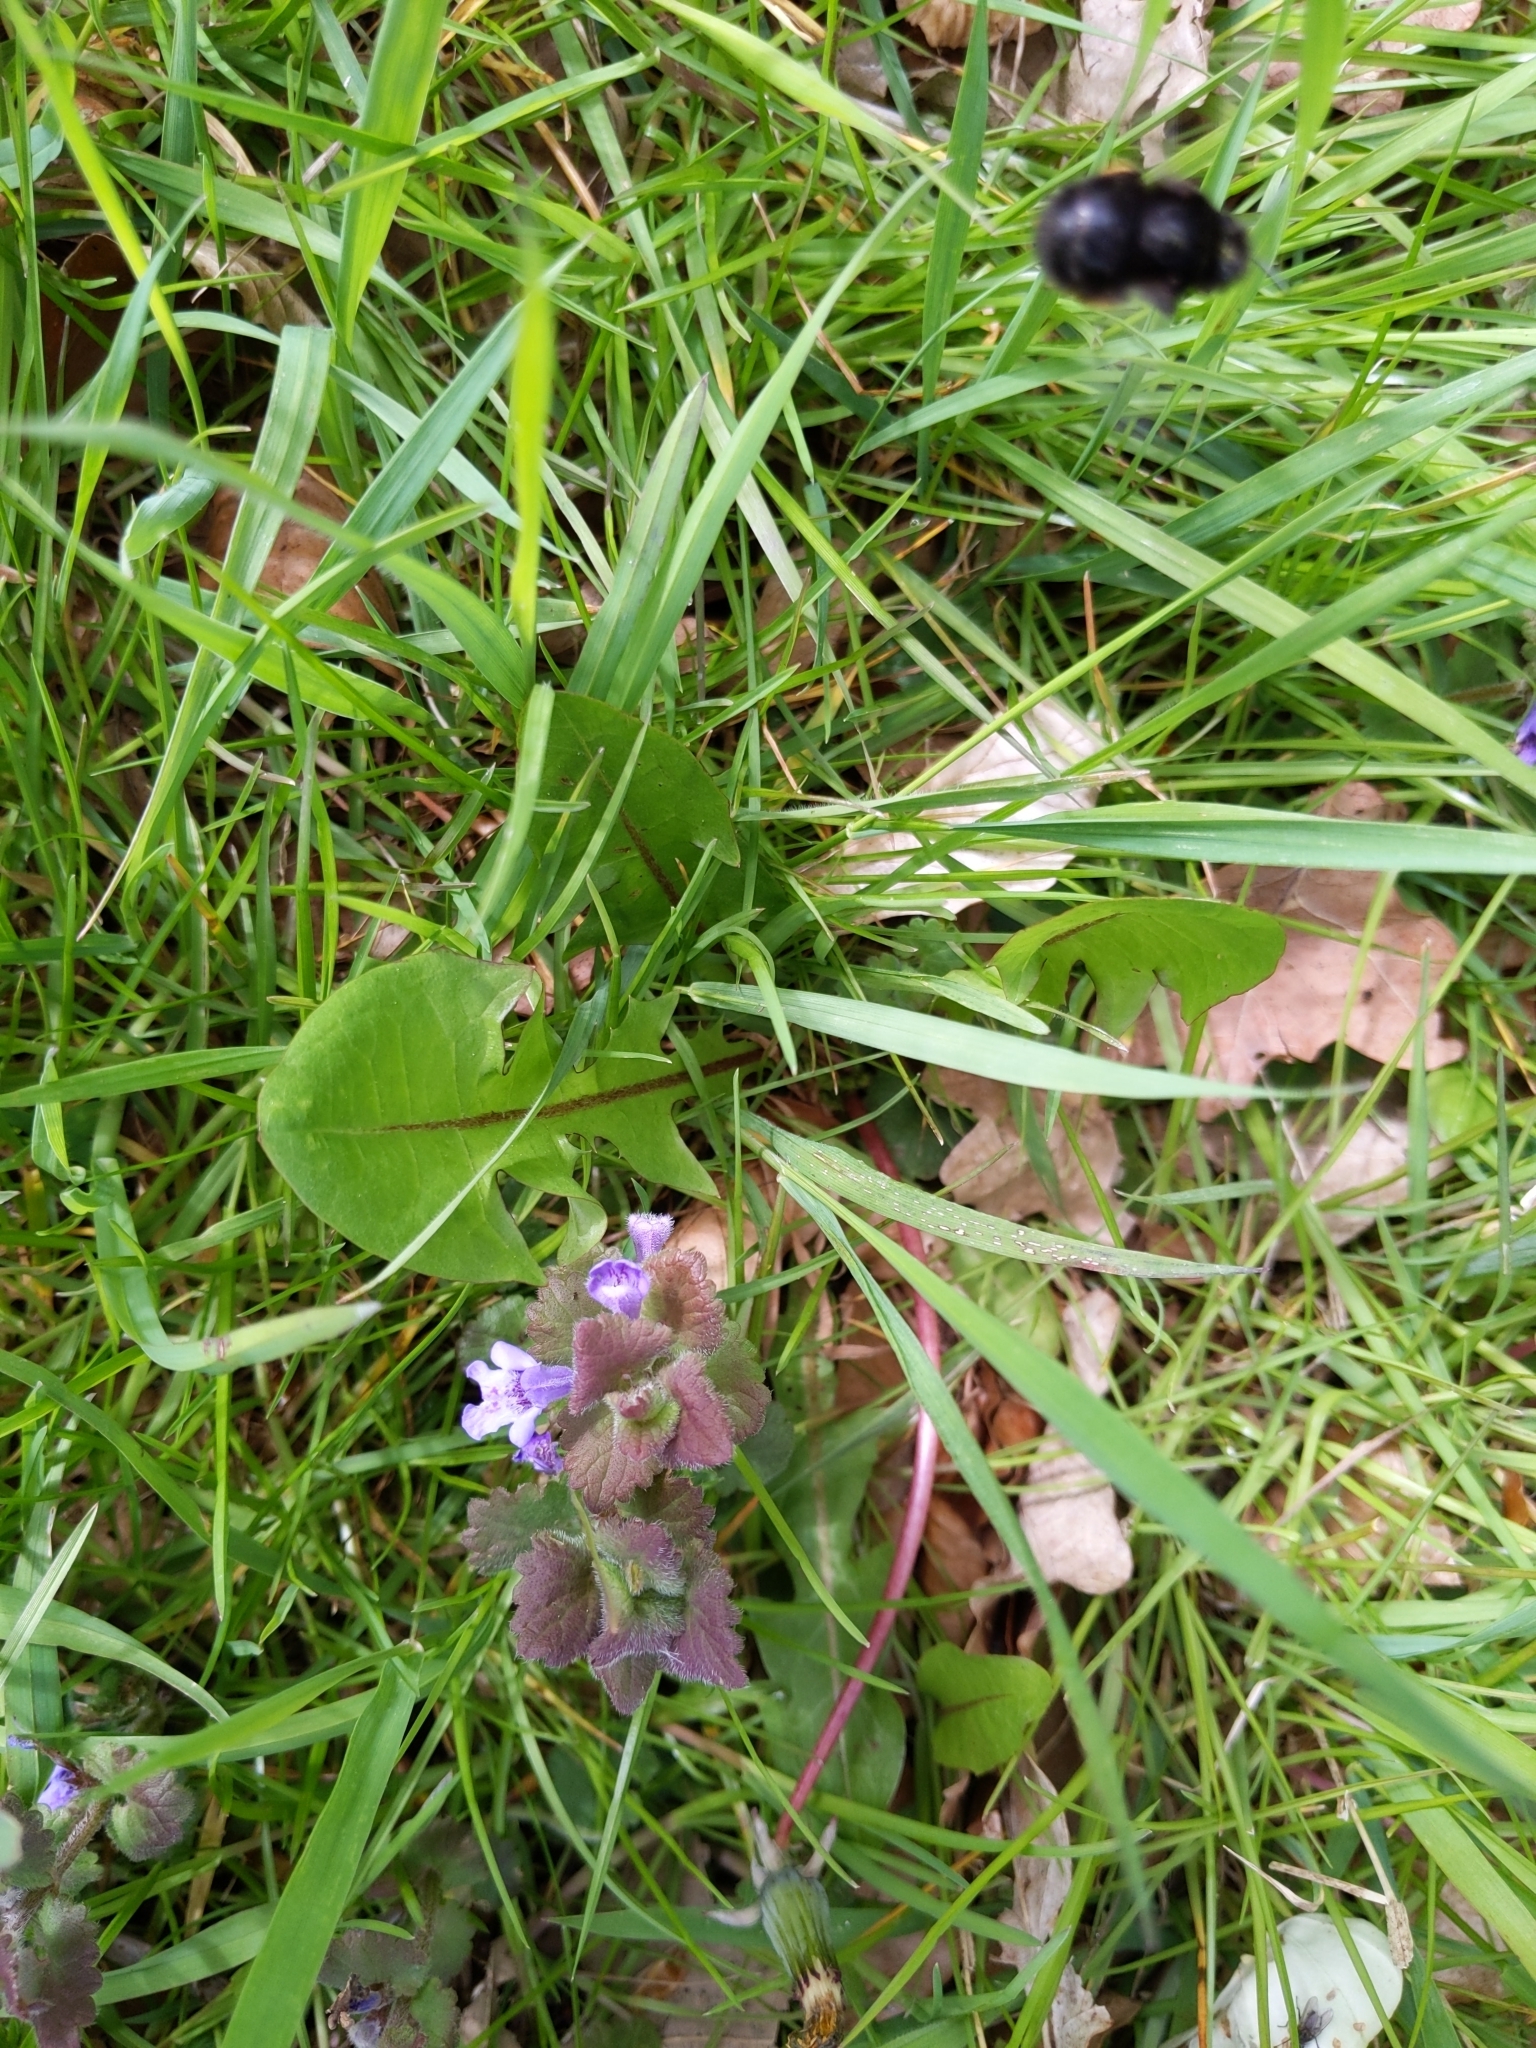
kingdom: Animalia
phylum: Arthropoda
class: Insecta
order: Hymenoptera
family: Apidae
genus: Anthophora
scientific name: Anthophora plumipes
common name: Hairy-footed flower bee
